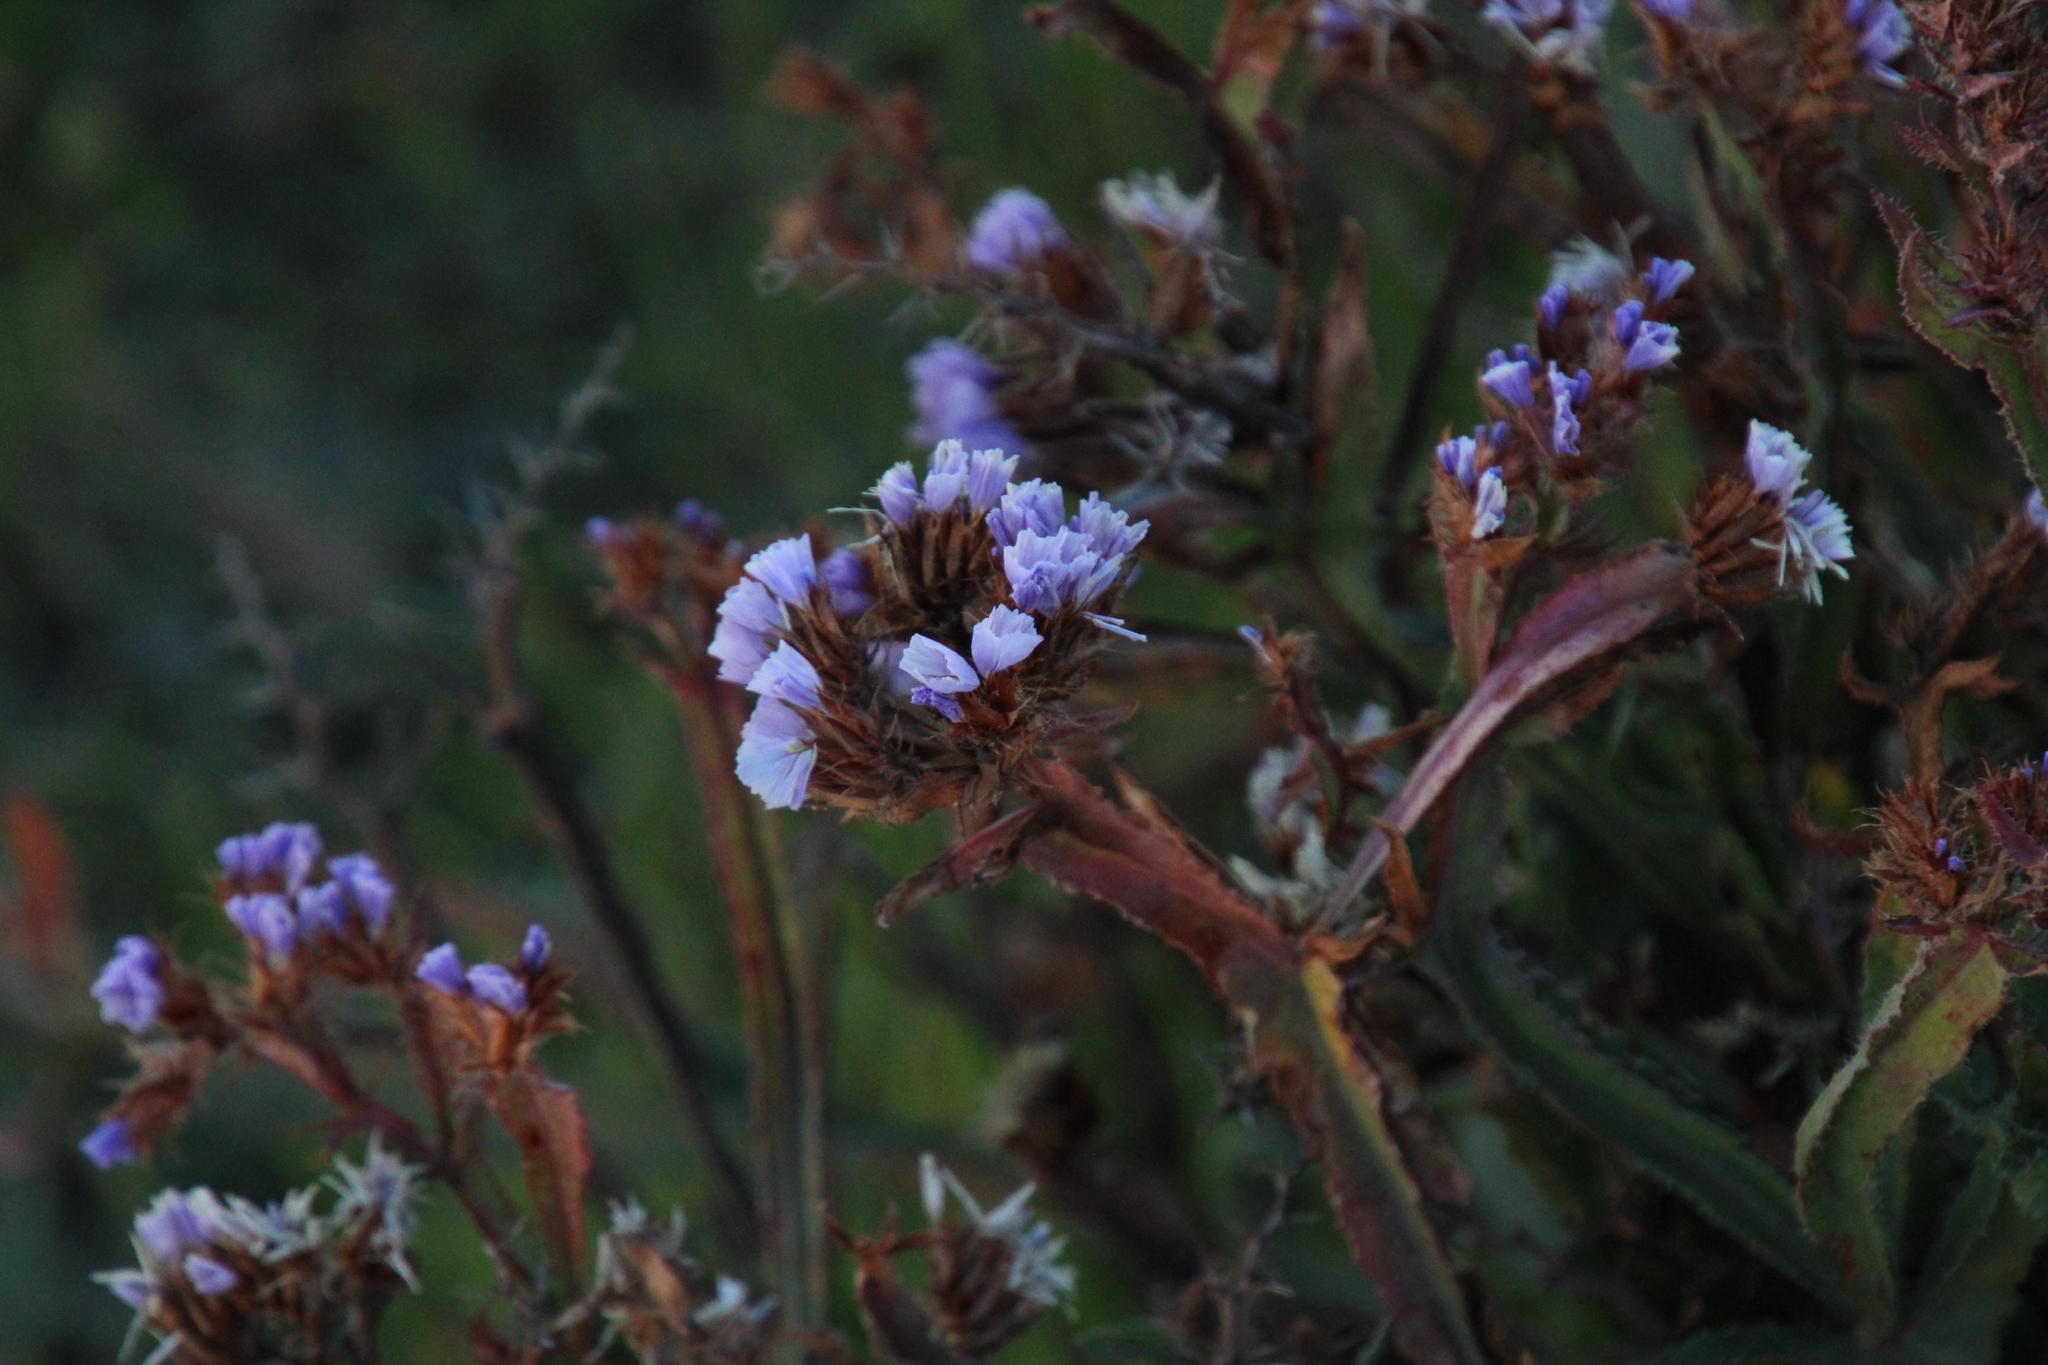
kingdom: Plantae
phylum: Tracheophyta
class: Magnoliopsida
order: Caryophyllales
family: Plumbaginaceae
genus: Limonium
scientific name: Limonium sinuatum
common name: Statice
